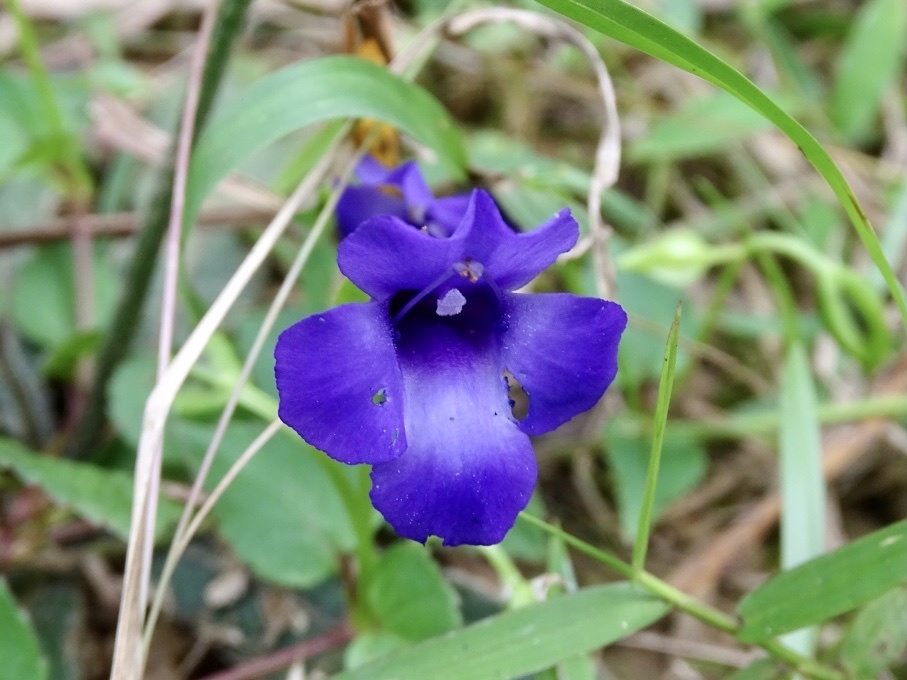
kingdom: Plantae
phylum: Tracheophyta
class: Magnoliopsida
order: Lamiales
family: Linderniaceae
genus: Torenia
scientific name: Torenia concolor
